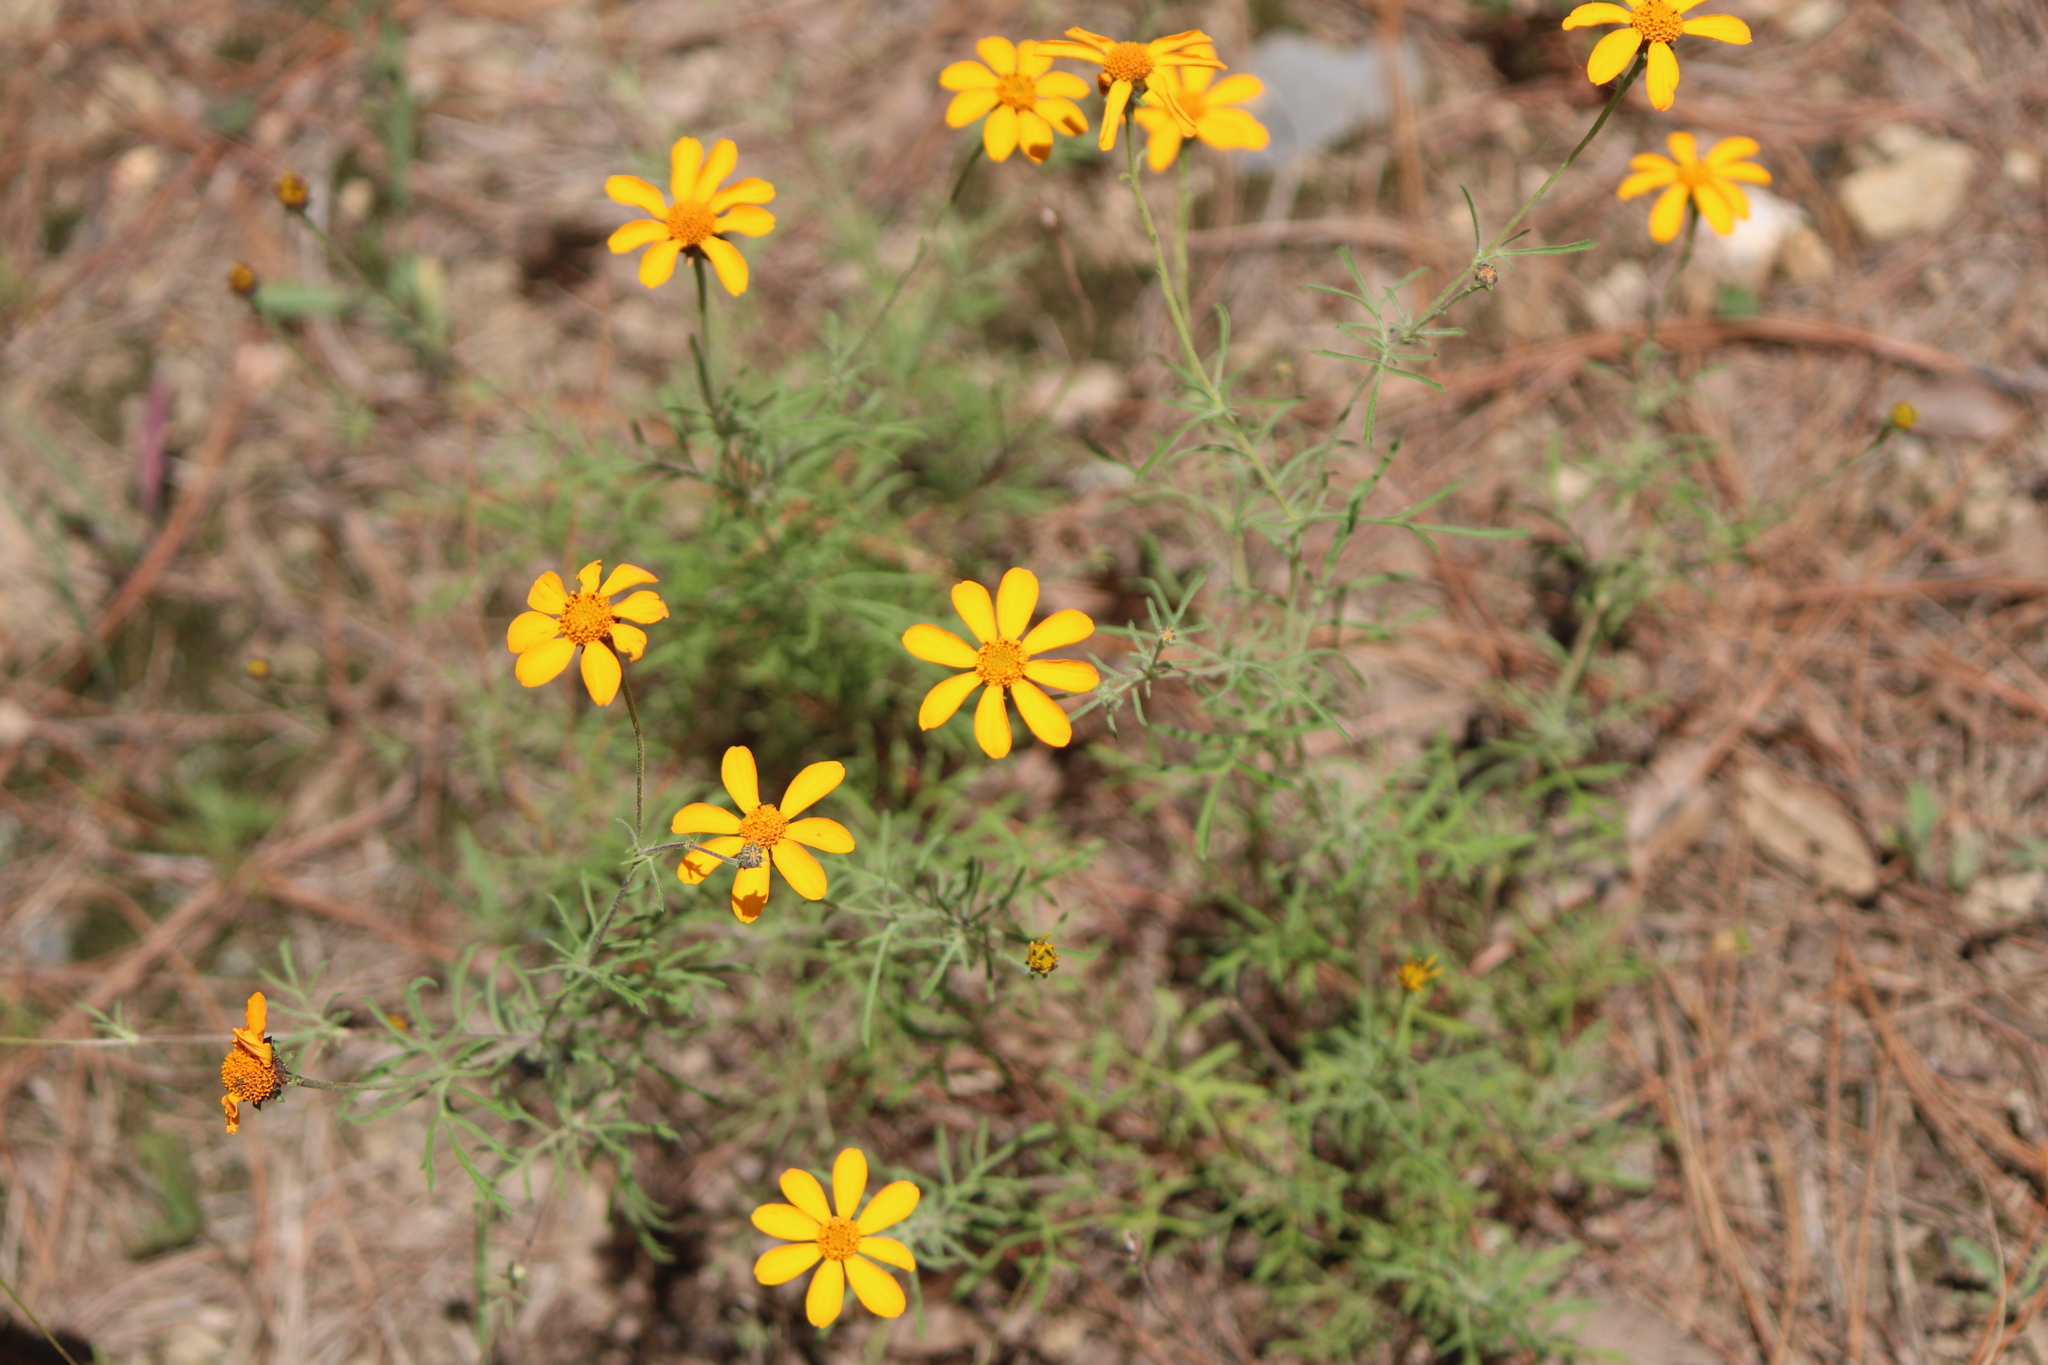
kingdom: Plantae
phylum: Tracheophyta
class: Magnoliopsida
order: Asterales
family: Asteraceae
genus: Dyssodia
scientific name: Dyssodia pinnata
